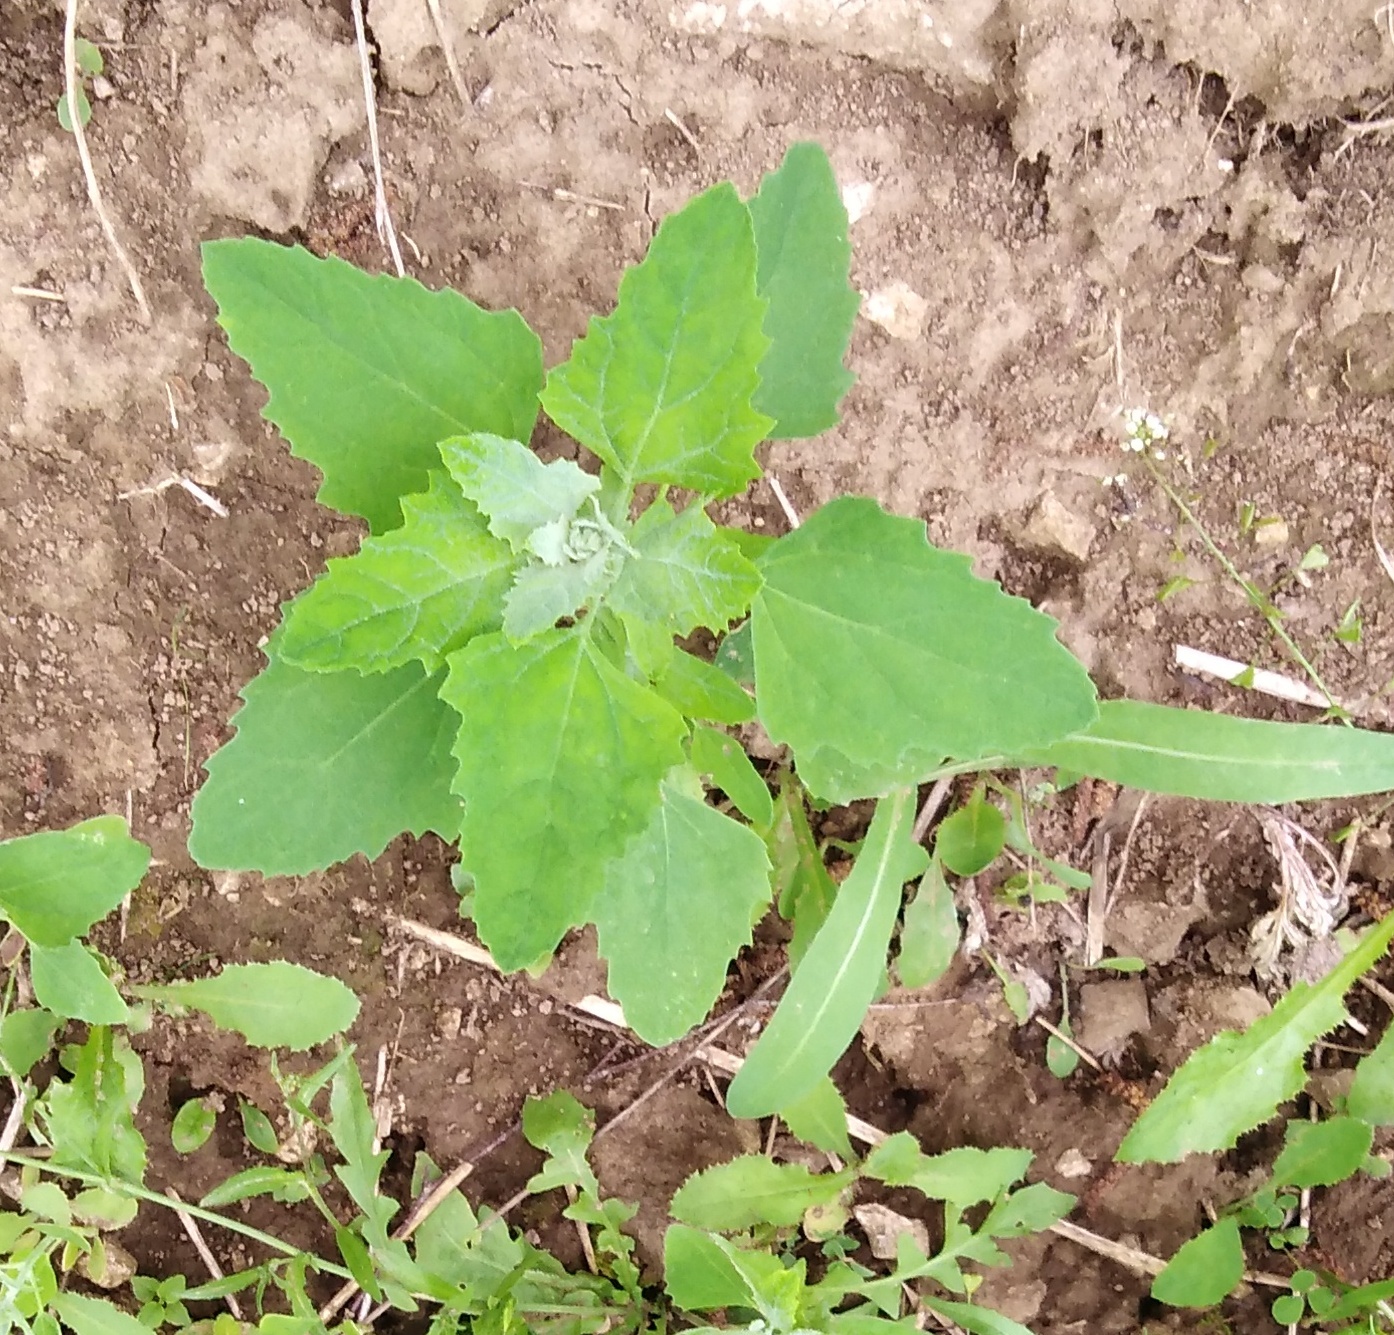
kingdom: Plantae
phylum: Tracheophyta
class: Magnoliopsida
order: Caryophyllales
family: Amaranthaceae
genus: Chenopodium
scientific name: Chenopodium album
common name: Fat-hen
